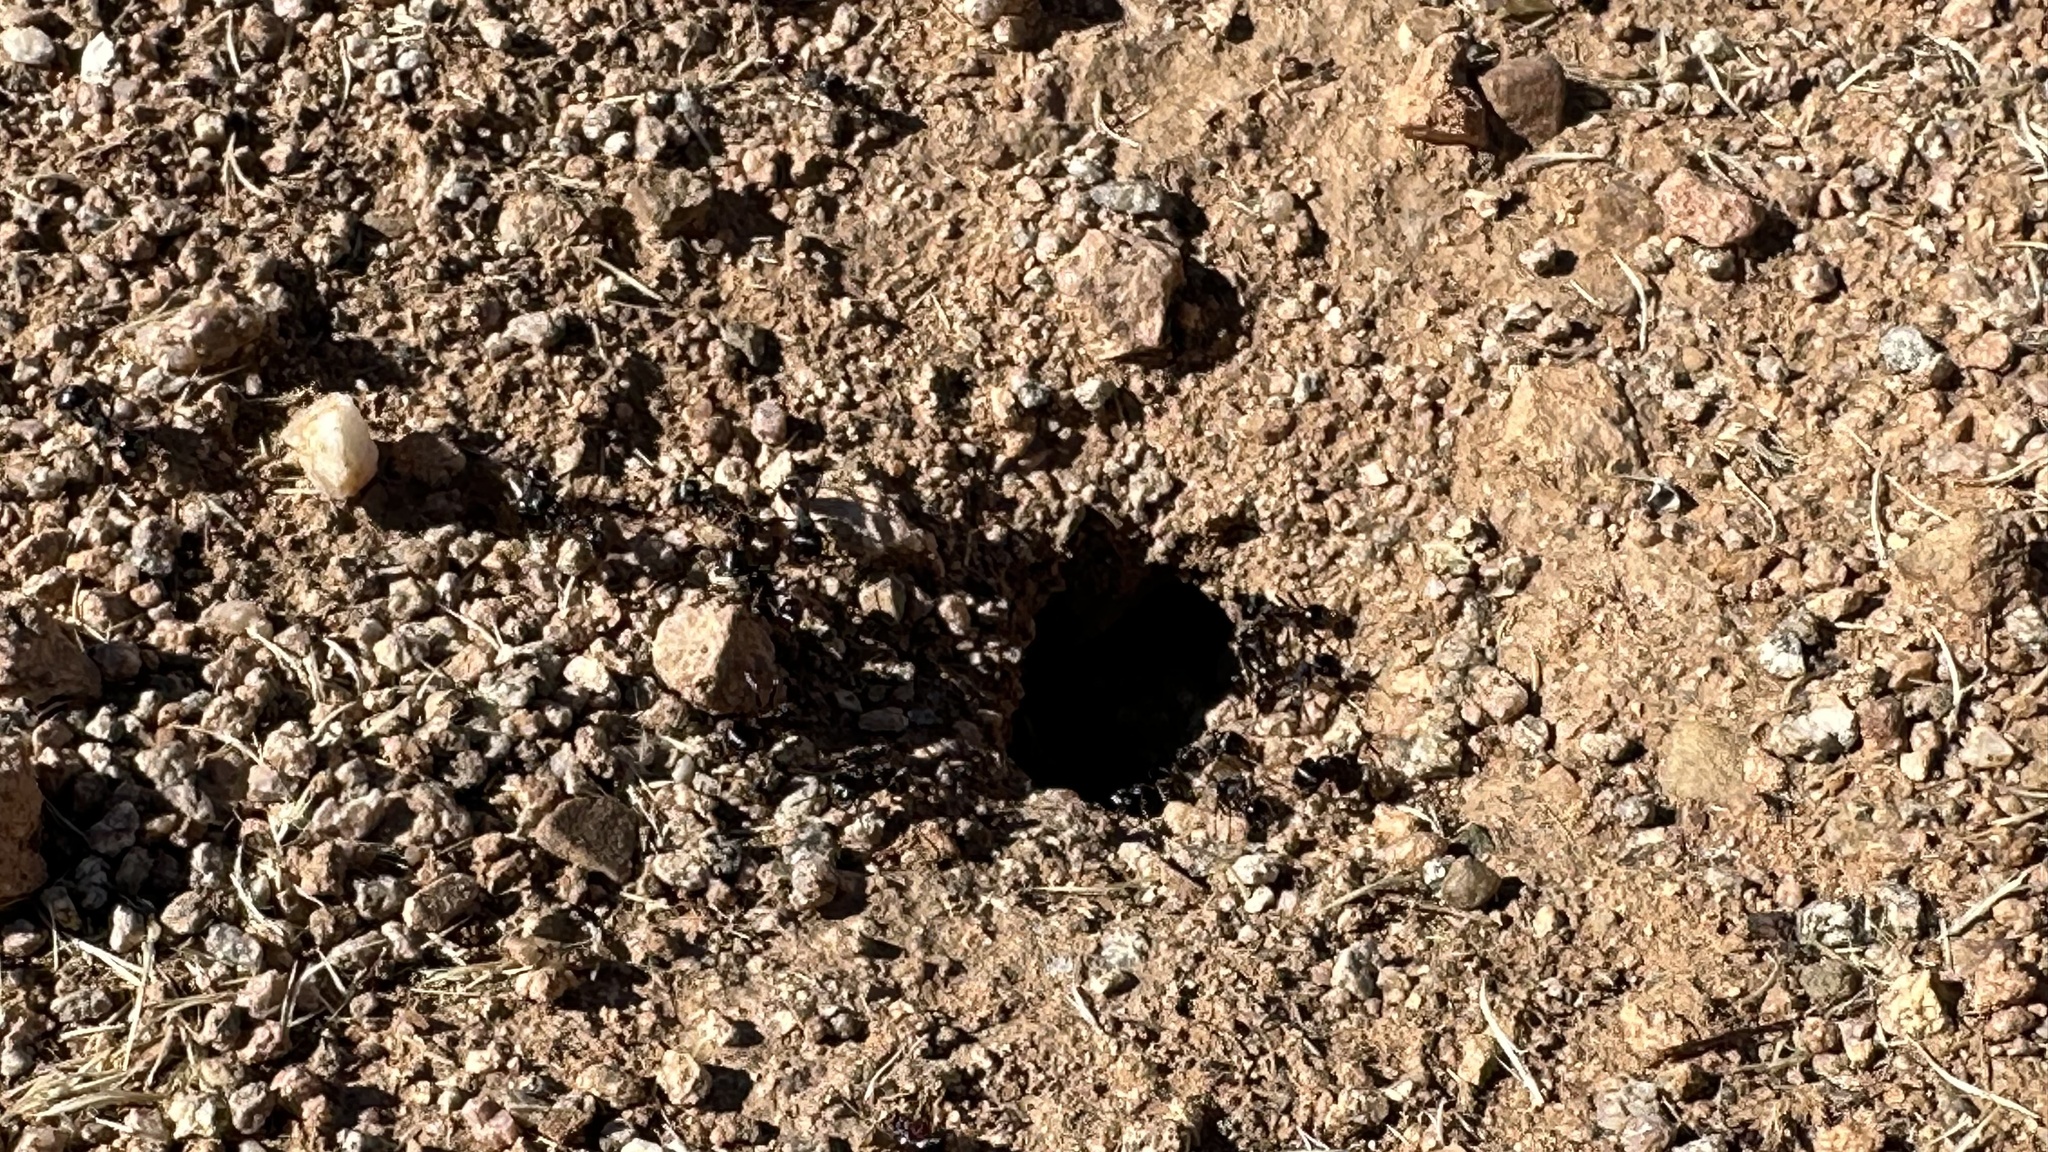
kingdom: Animalia
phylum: Arthropoda
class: Insecta
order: Hymenoptera
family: Formicidae
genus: Pogonomyrmex
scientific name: Pogonomyrmex rugosus
